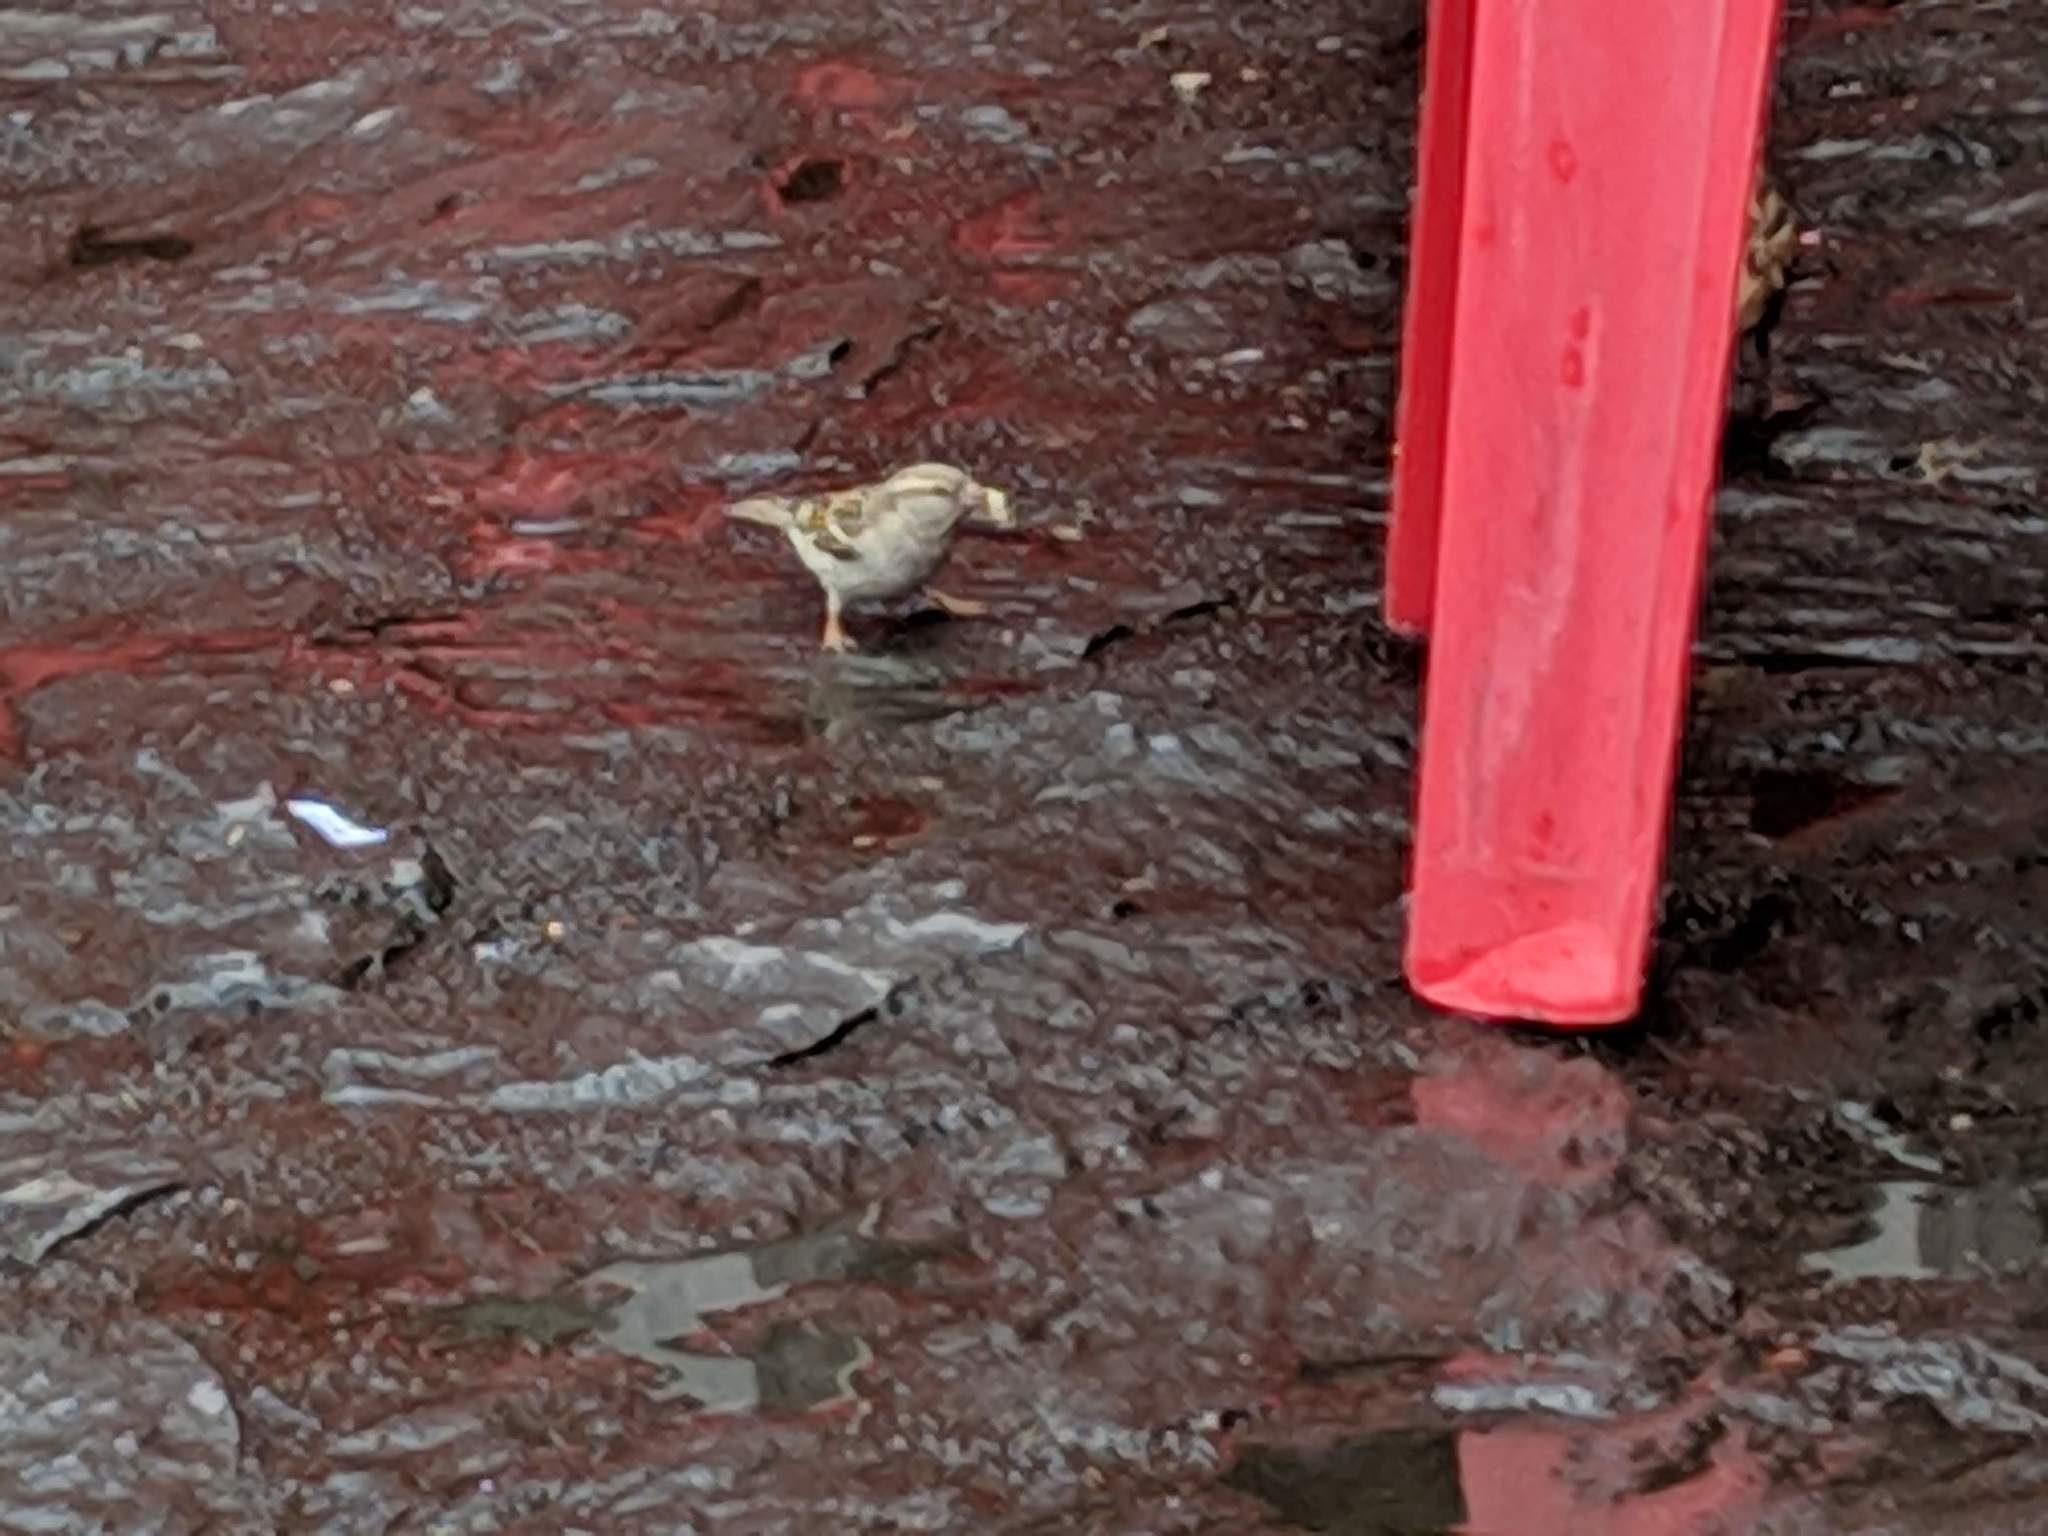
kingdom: Animalia
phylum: Chordata
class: Aves
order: Passeriformes
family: Passeridae
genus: Passer
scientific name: Passer domesticus
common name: House sparrow
